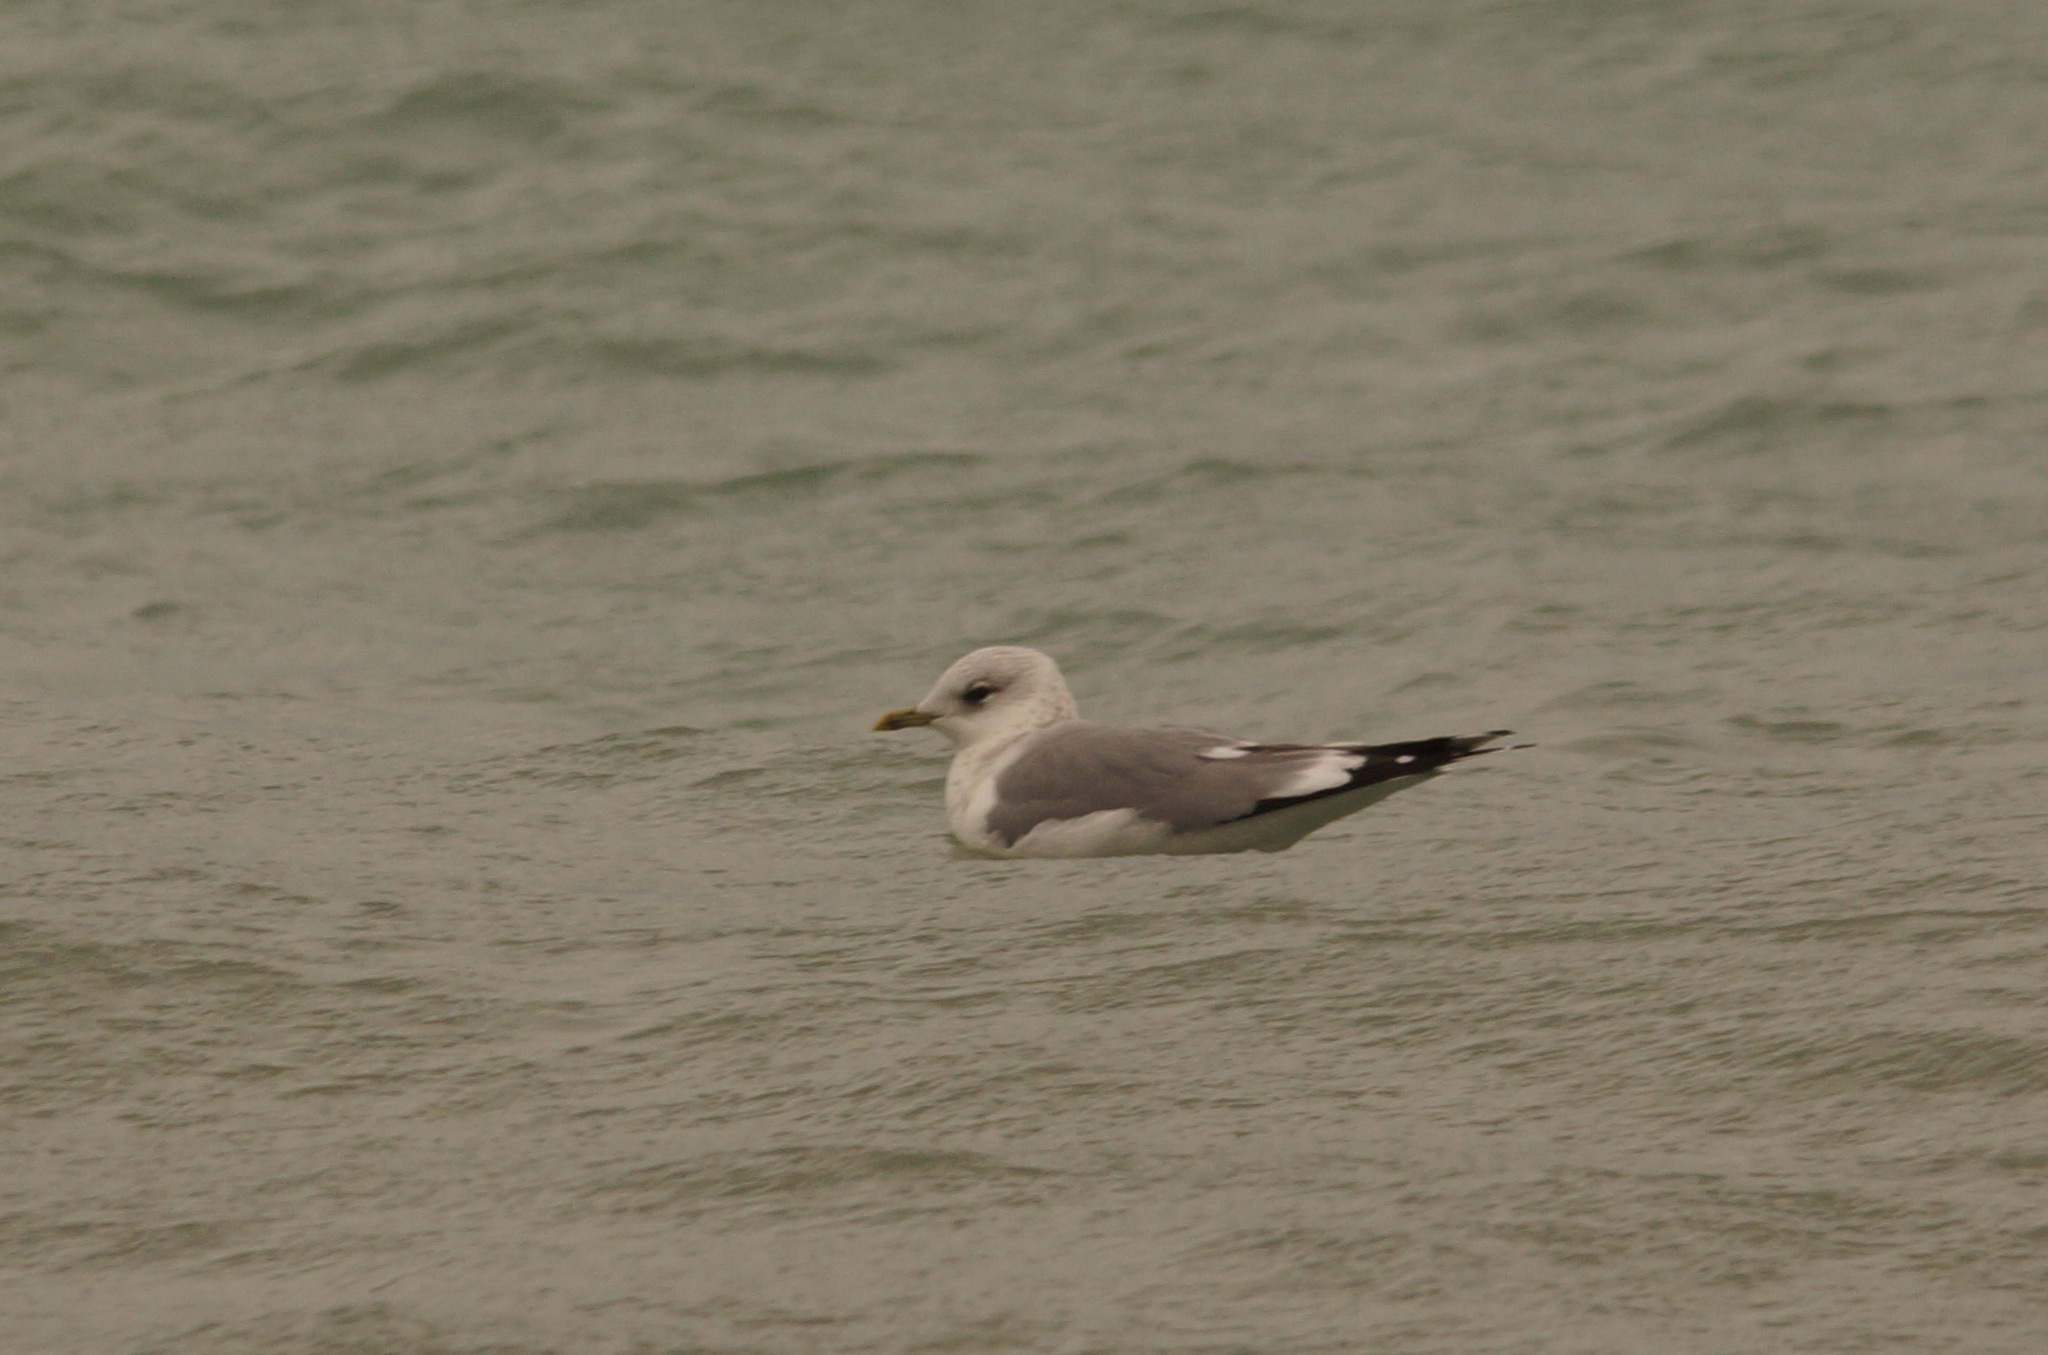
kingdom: Animalia
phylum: Chordata
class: Aves
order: Charadriiformes
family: Laridae
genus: Larus
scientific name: Larus canus
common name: Mew gull
